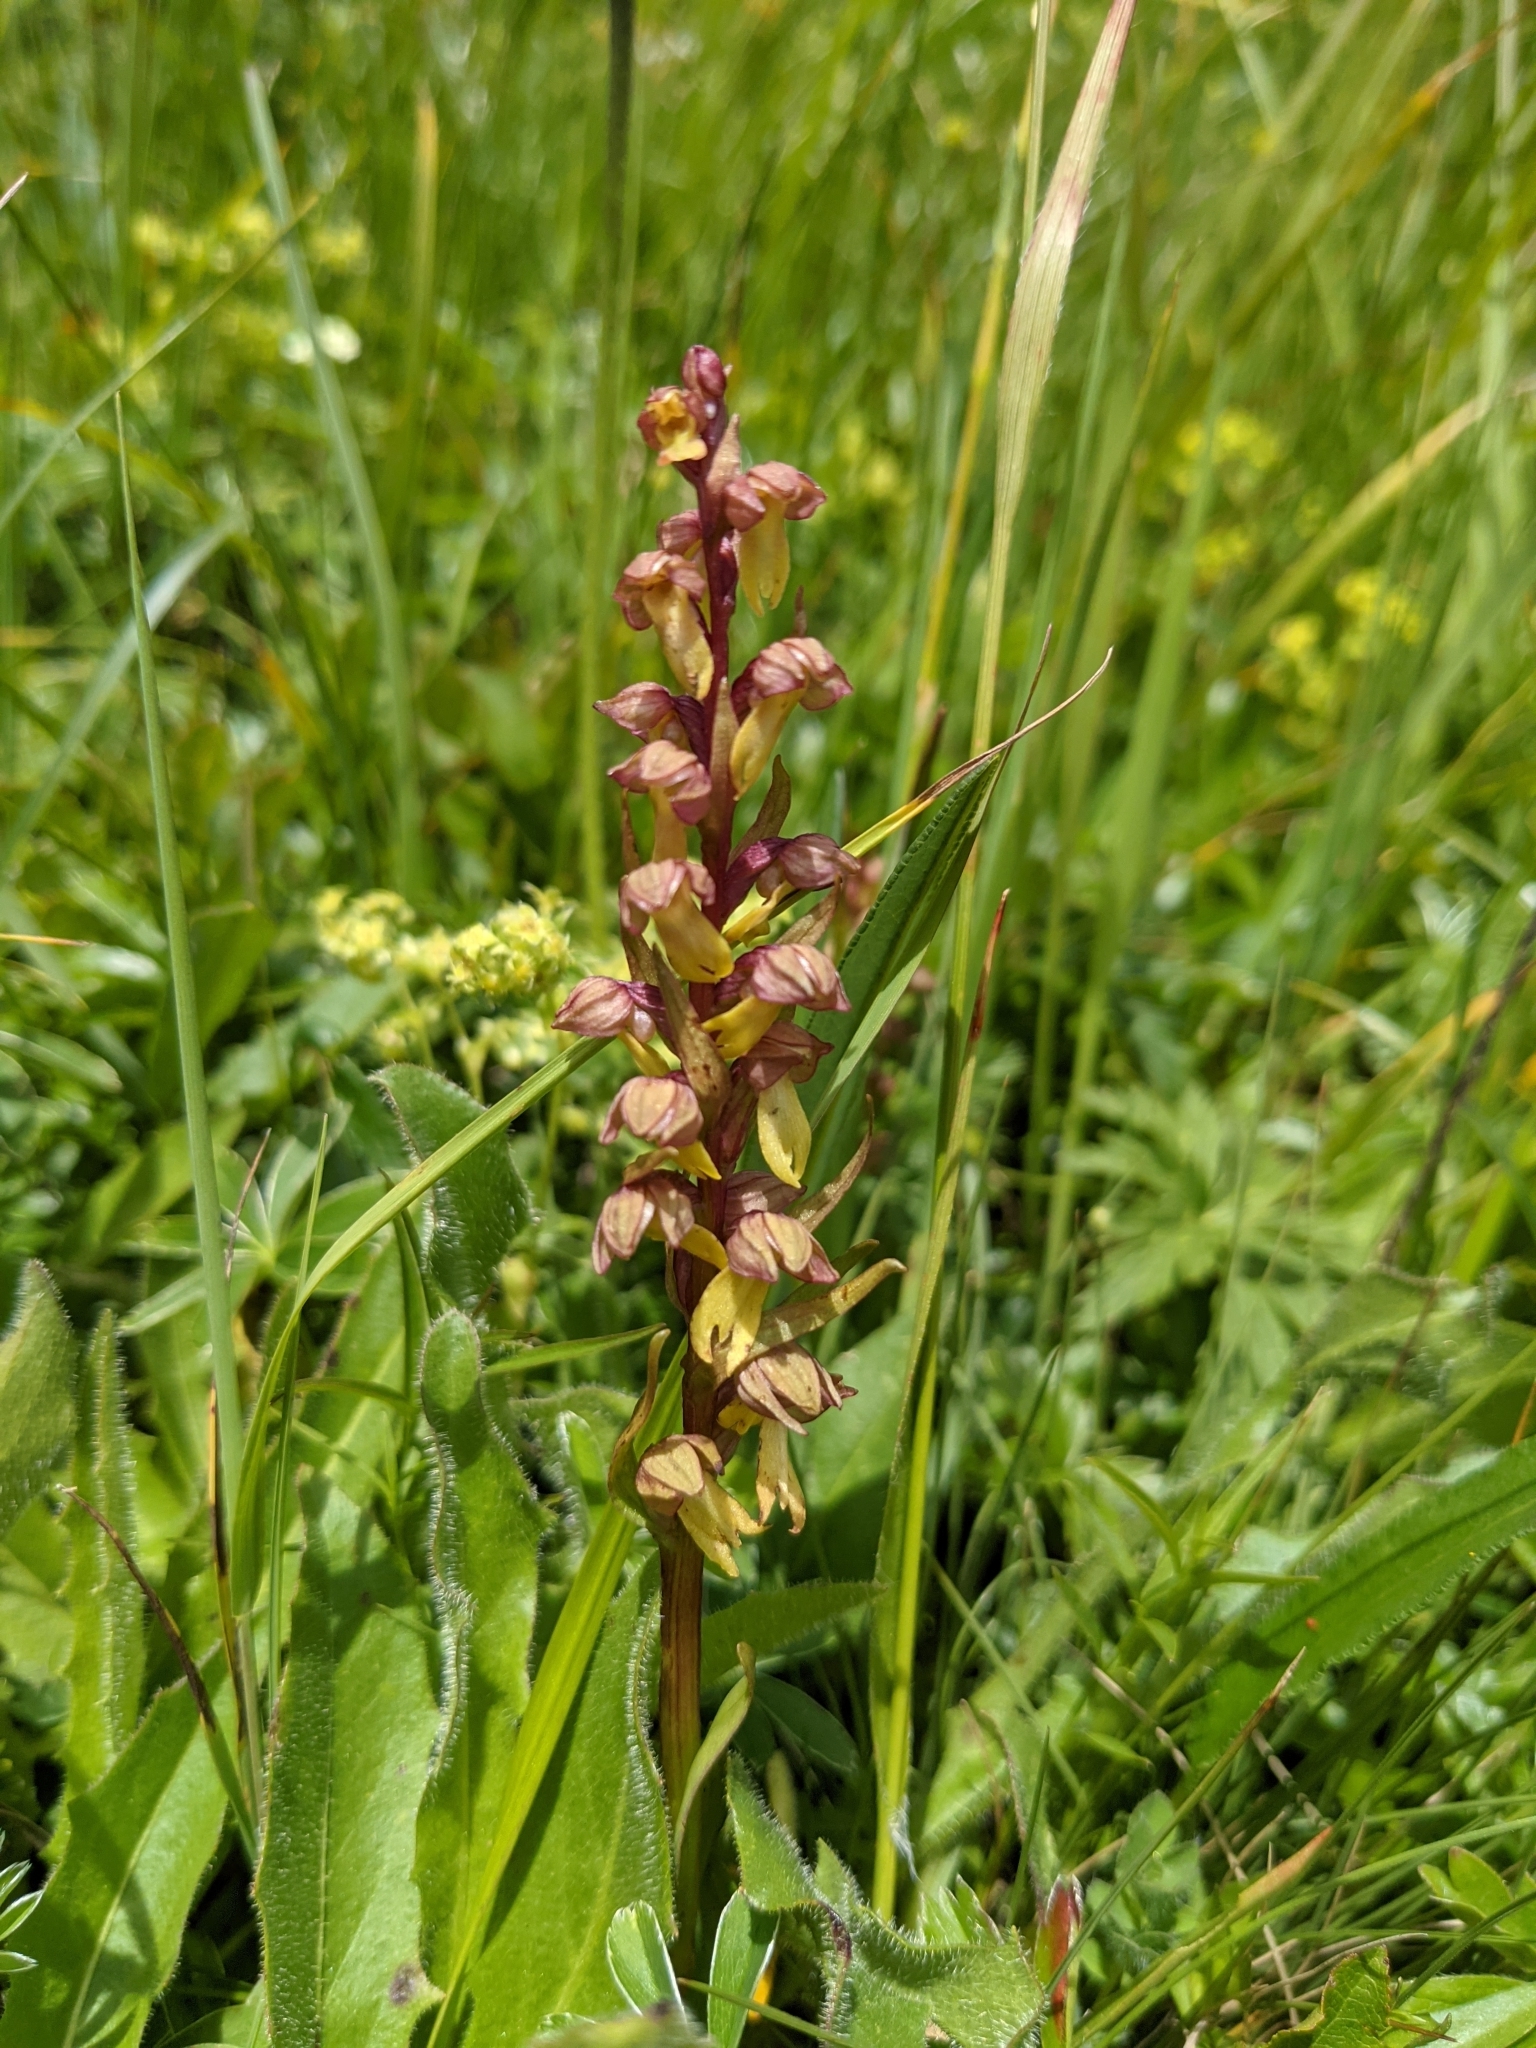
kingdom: Plantae
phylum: Tracheophyta
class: Liliopsida
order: Asparagales
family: Orchidaceae
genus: Dactylorhiza
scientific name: Dactylorhiza viridis
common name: Longbract frog orchid
